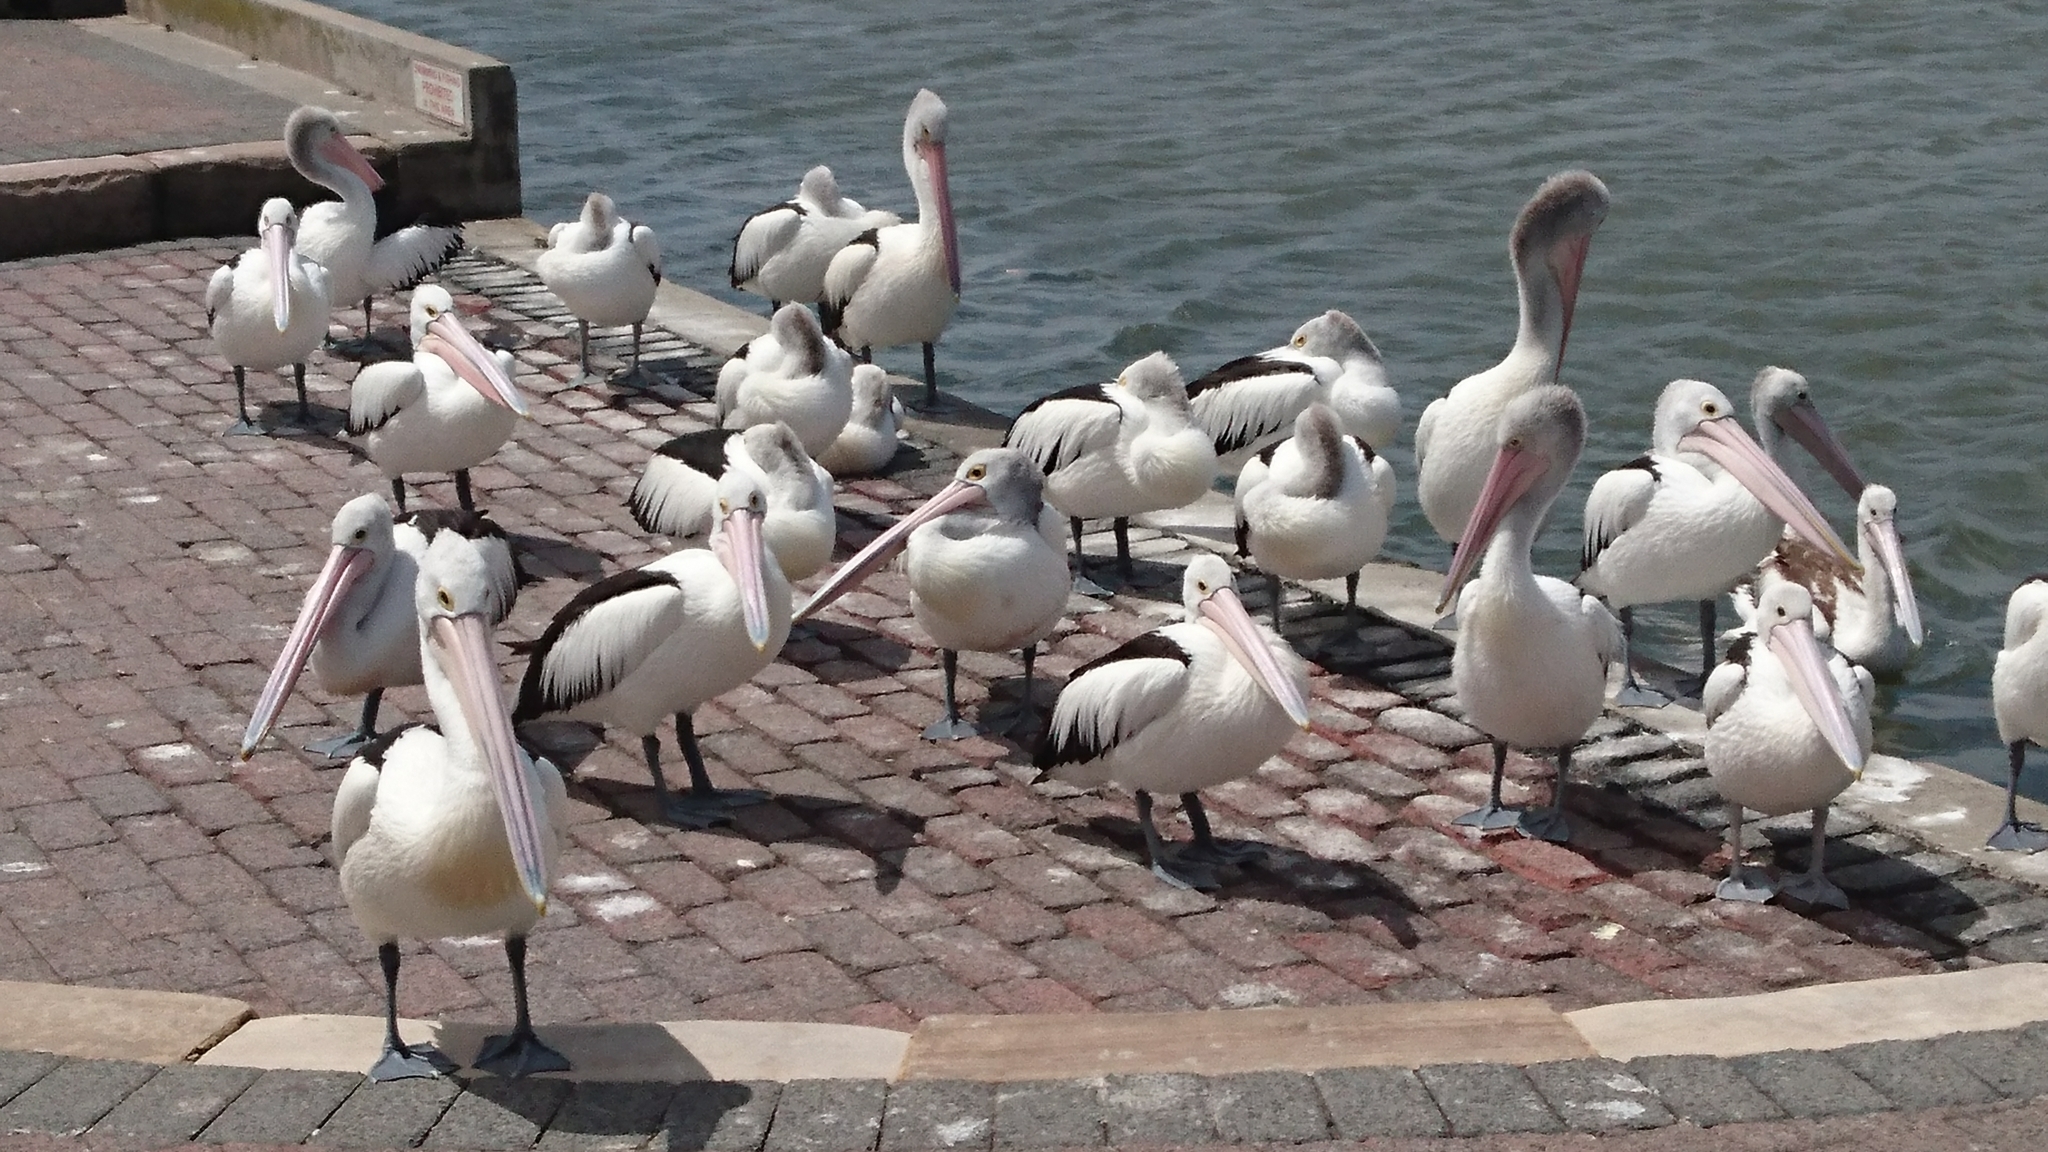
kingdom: Animalia
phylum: Chordata
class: Aves
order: Pelecaniformes
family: Pelecanidae
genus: Pelecanus
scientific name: Pelecanus conspicillatus
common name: Australian pelican
